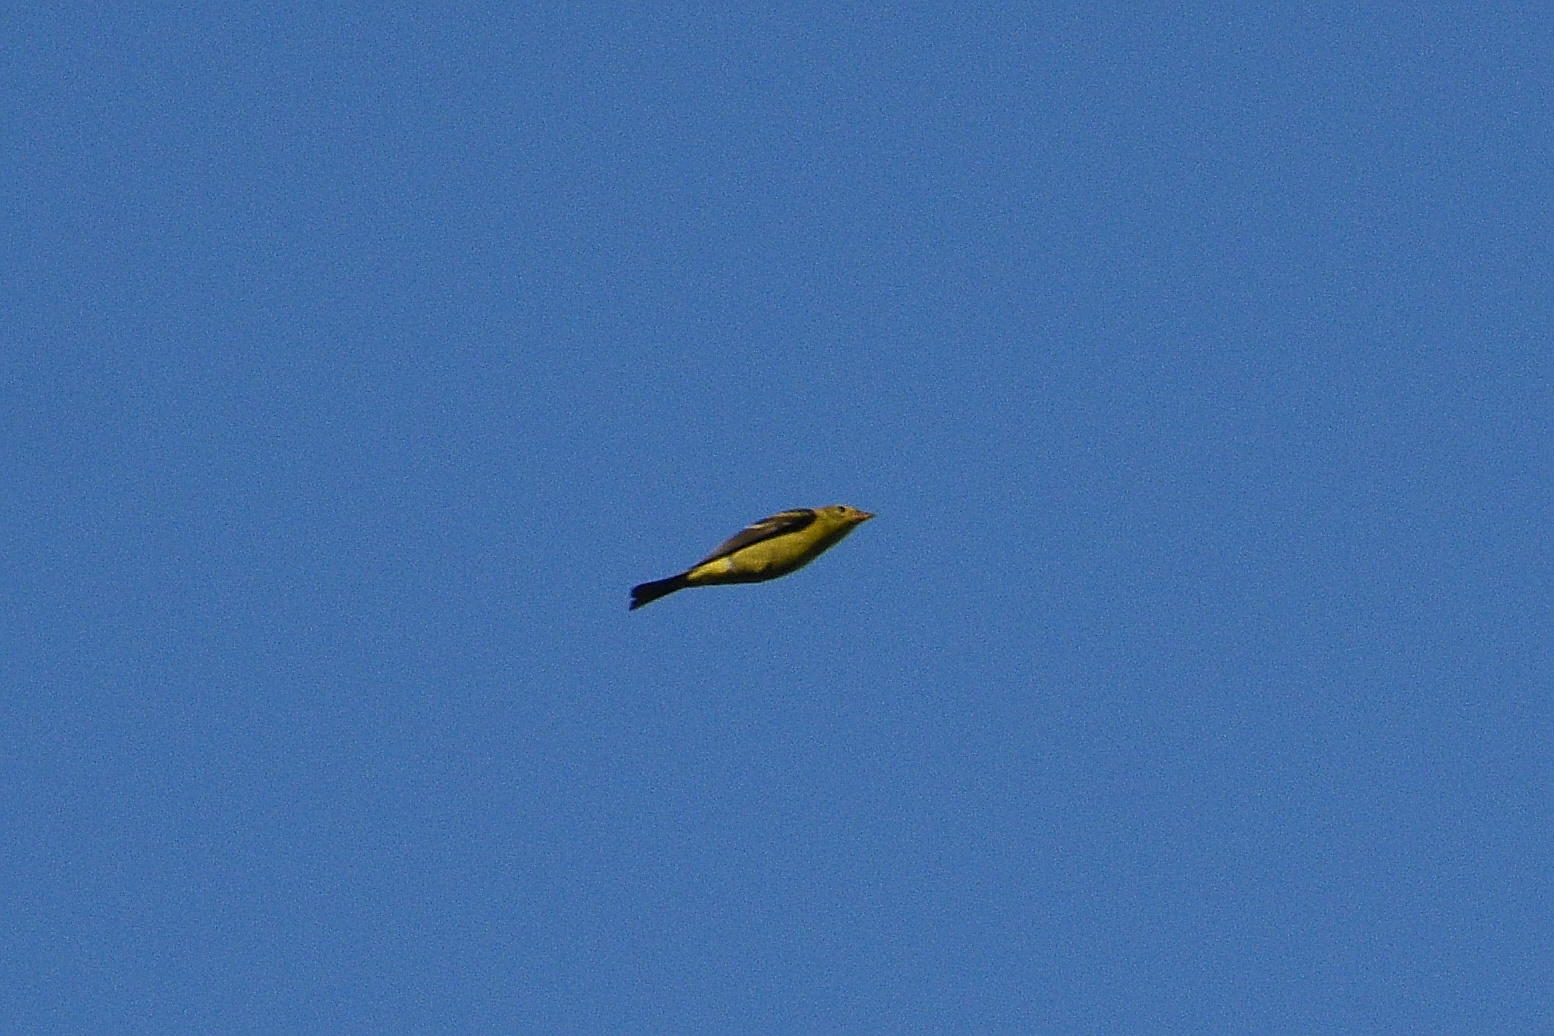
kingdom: Animalia
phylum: Chordata
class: Aves
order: Passeriformes
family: Cardinalidae
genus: Piranga
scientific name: Piranga ludoviciana
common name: Western tanager
